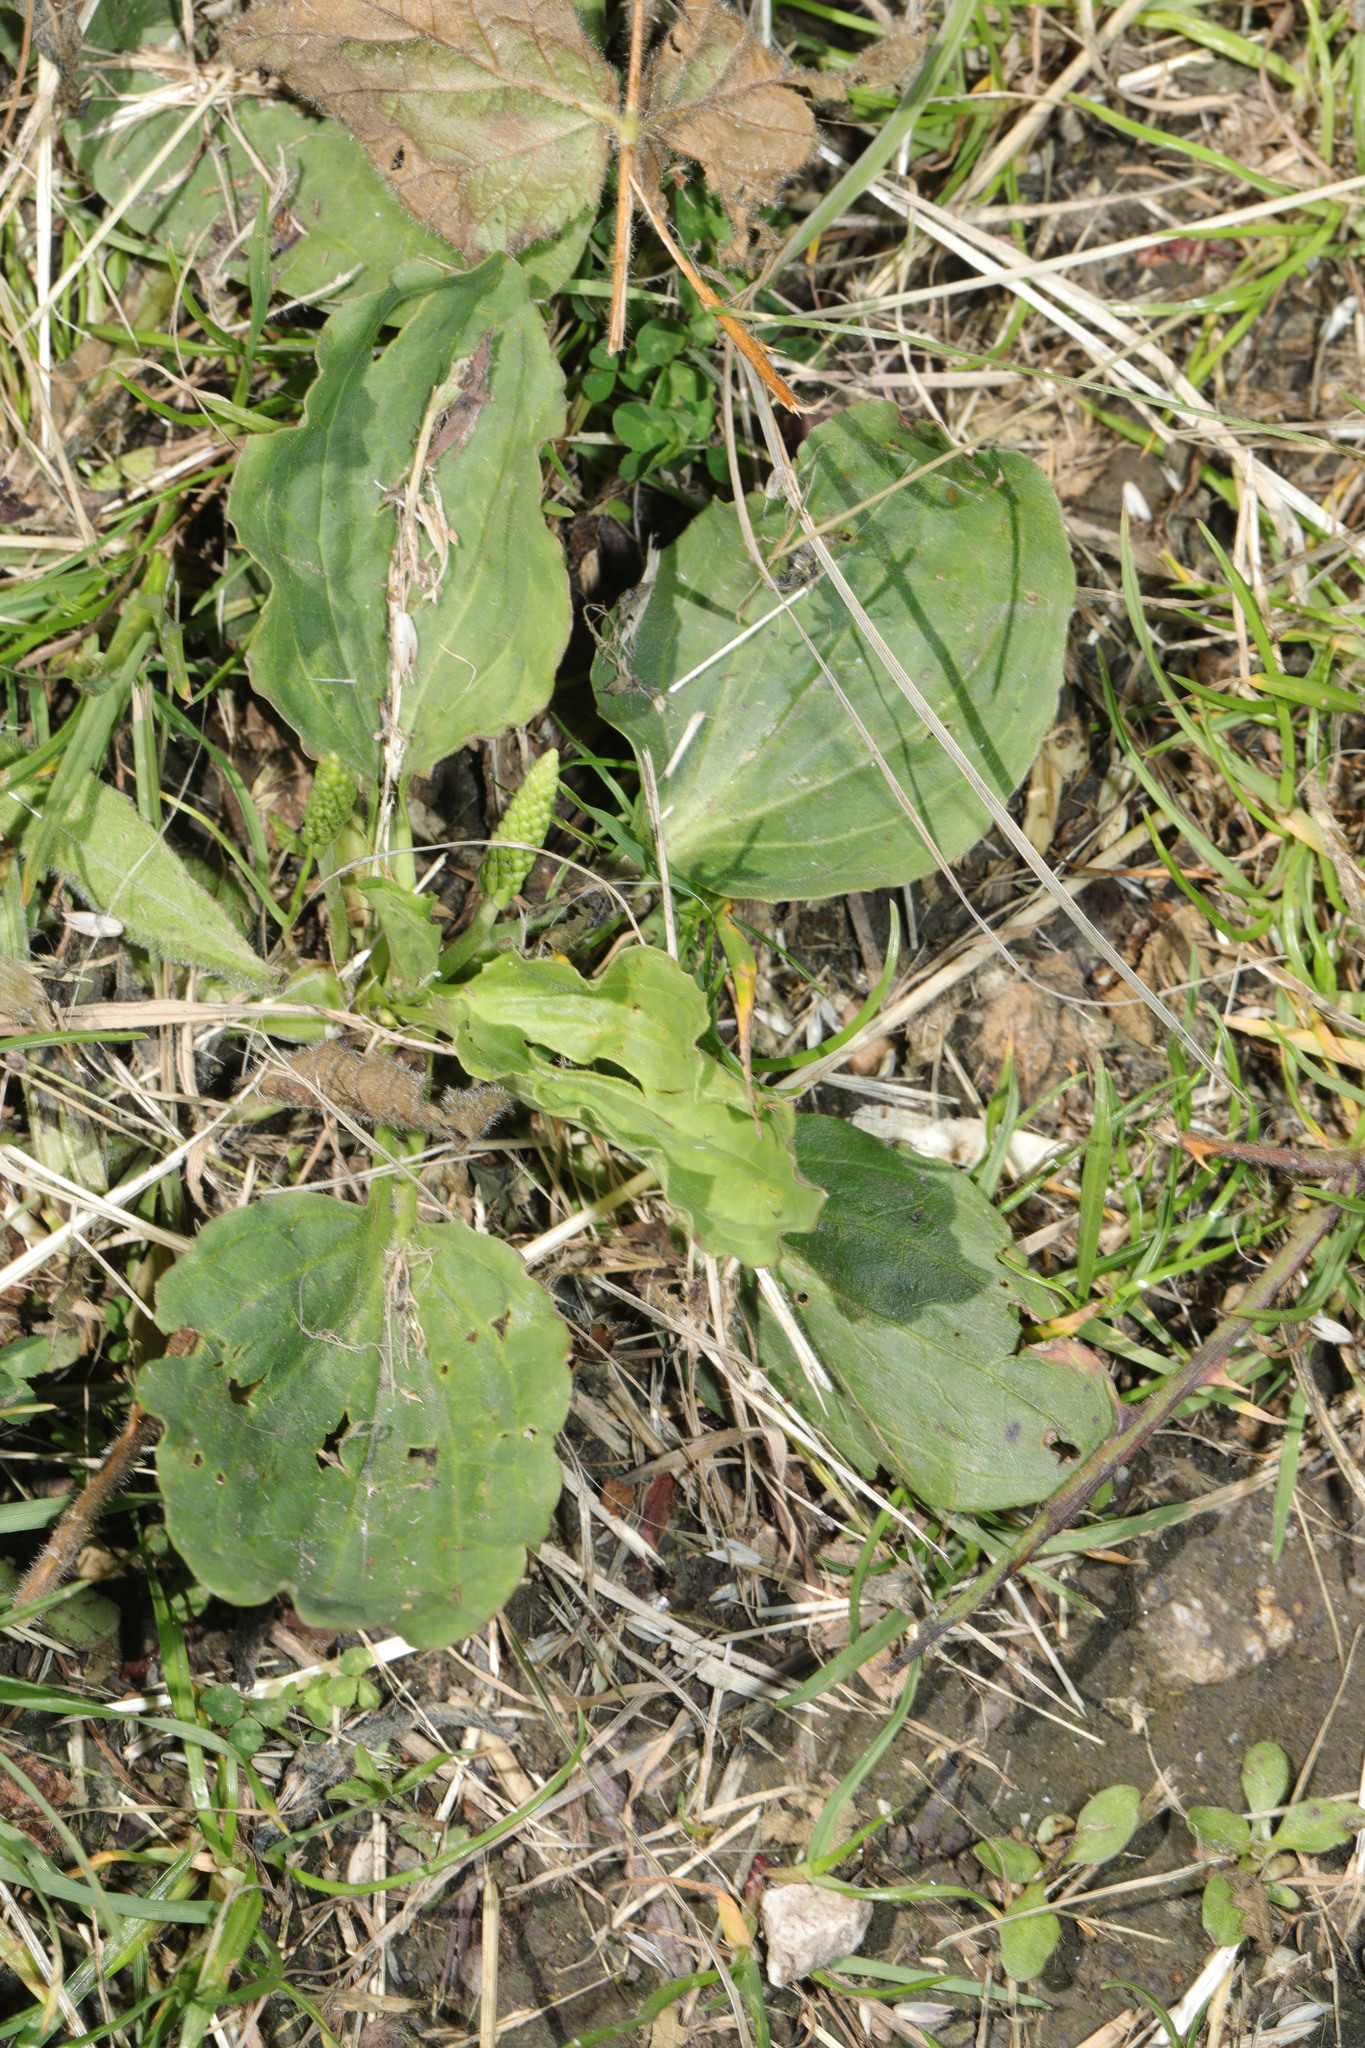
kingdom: Plantae
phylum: Tracheophyta
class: Magnoliopsida
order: Lamiales
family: Plantaginaceae
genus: Plantago
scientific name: Plantago major
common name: Common plantain
